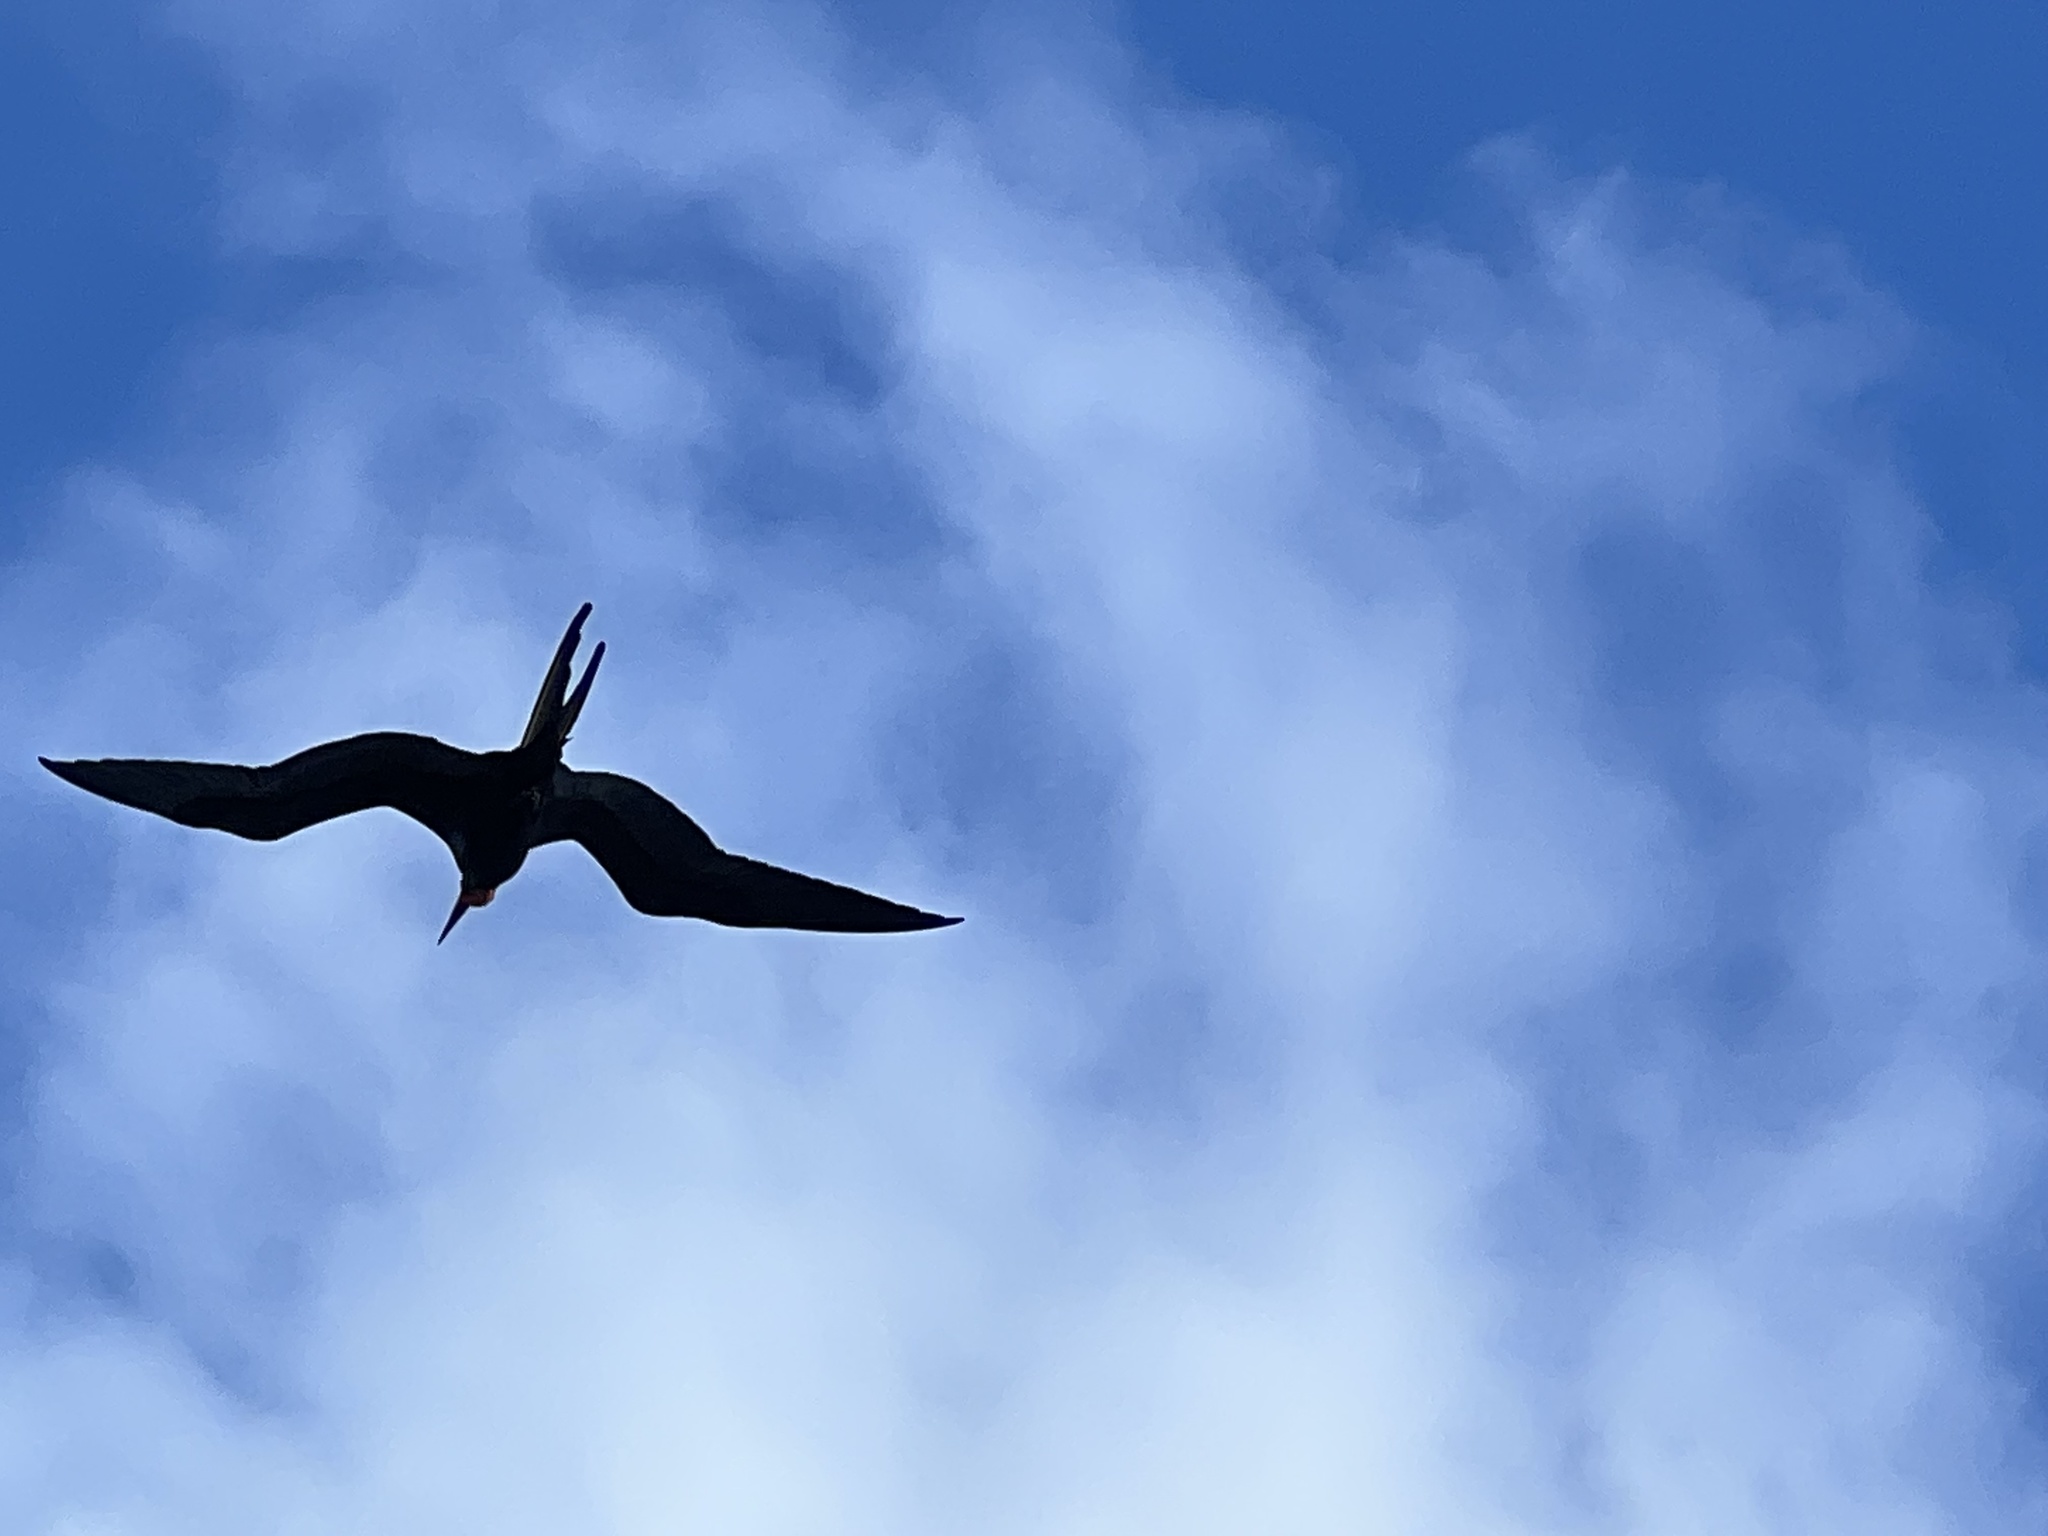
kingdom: Animalia
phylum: Chordata
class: Aves
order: Suliformes
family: Fregatidae
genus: Fregata
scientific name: Fregata magnificens
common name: Magnificent frigatebird
